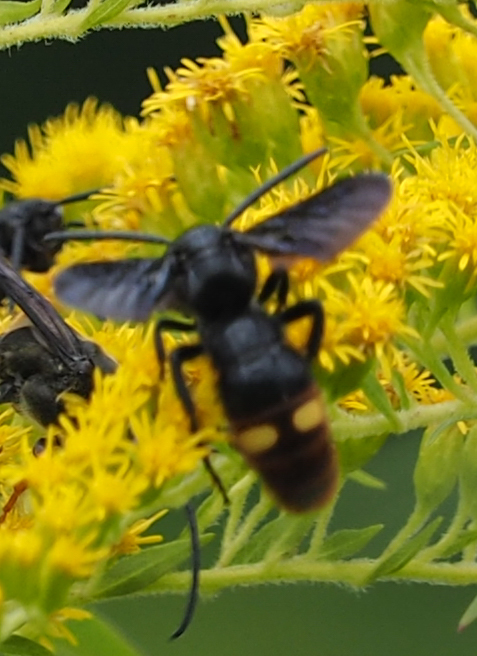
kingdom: Animalia
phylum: Arthropoda
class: Insecta
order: Hymenoptera
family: Scoliidae
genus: Scolia
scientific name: Scolia dubia
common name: Blue-winged scoliid wasp
